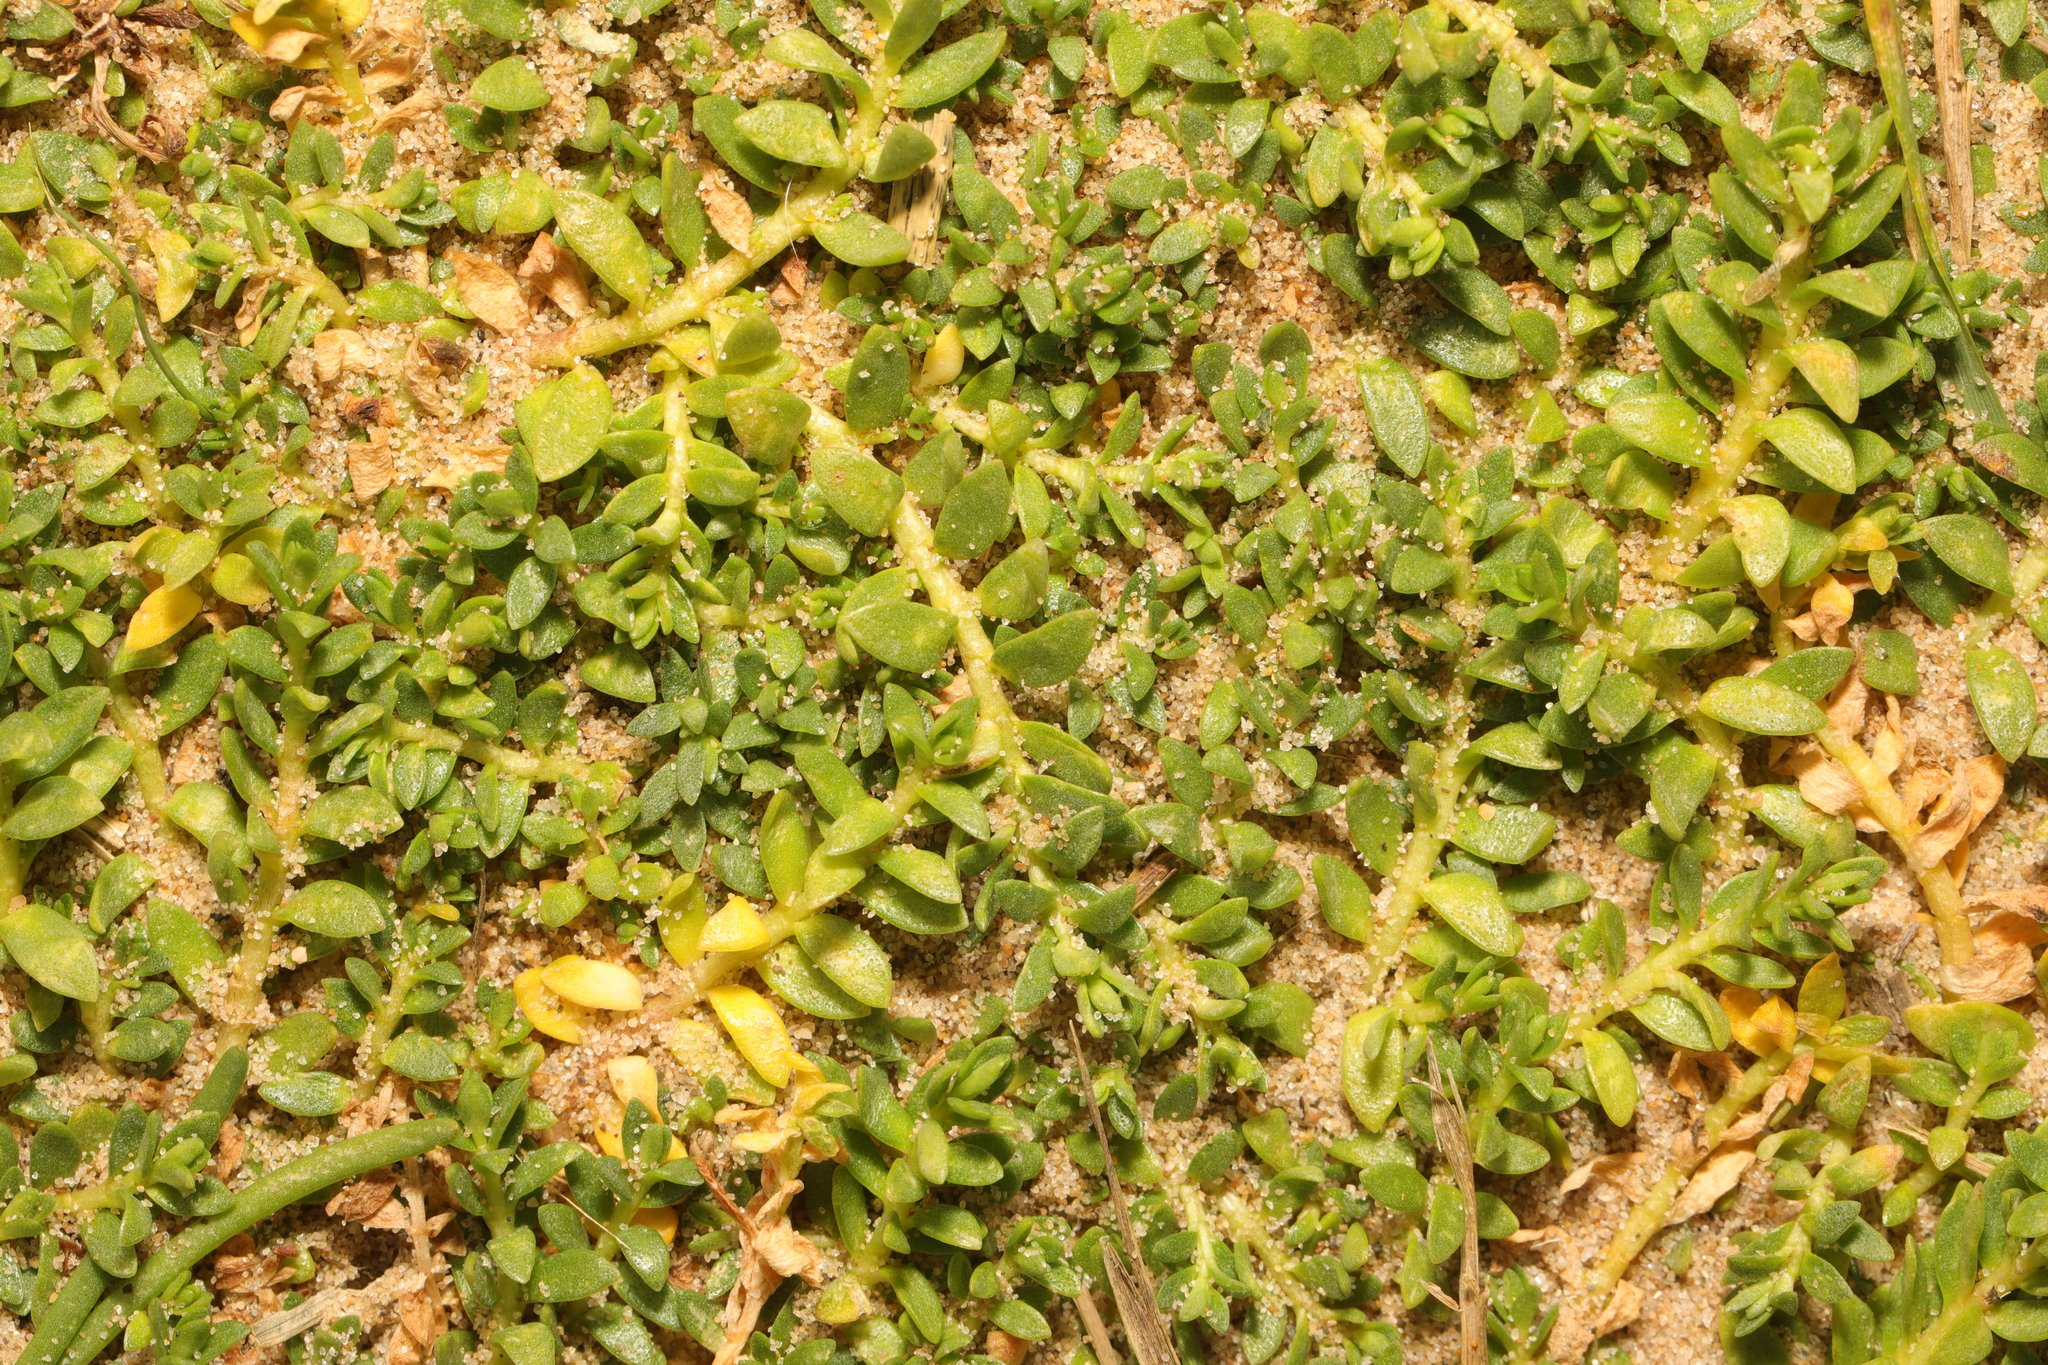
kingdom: Plantae
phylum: Tracheophyta
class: Magnoliopsida
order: Ericales
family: Primulaceae
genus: Lysimachia
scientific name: Lysimachia maritima
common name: Sea milkwort
